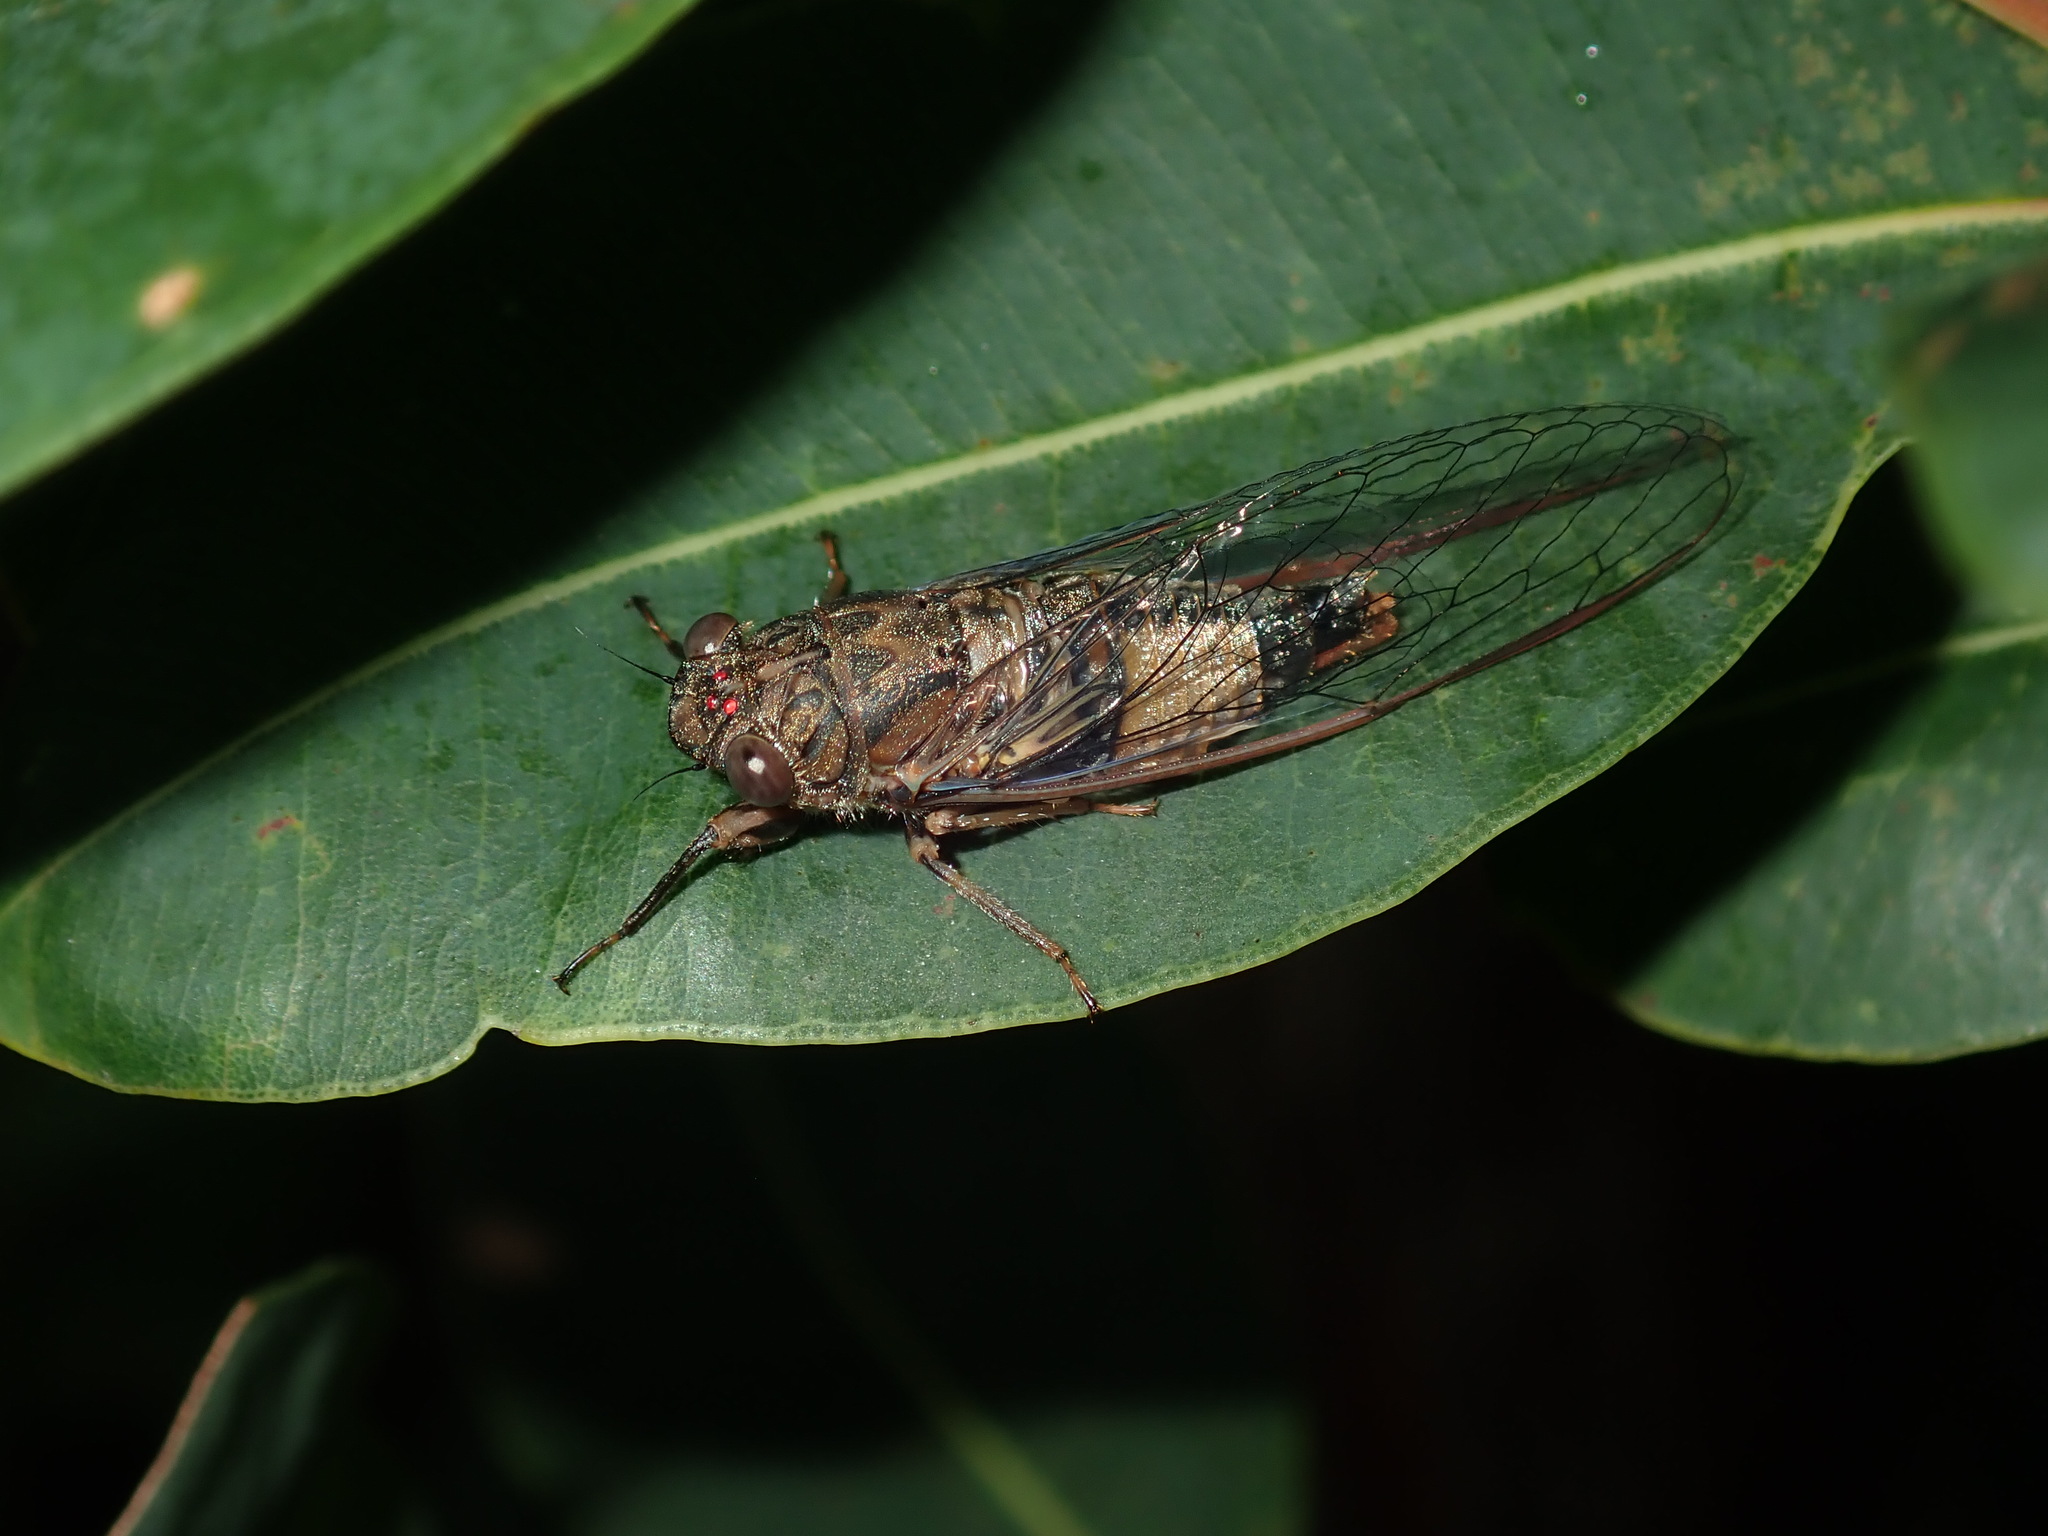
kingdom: Animalia
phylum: Arthropoda
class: Insecta
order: Hemiptera
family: Cicadidae
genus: Yoyetta
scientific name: Yoyetta celis
